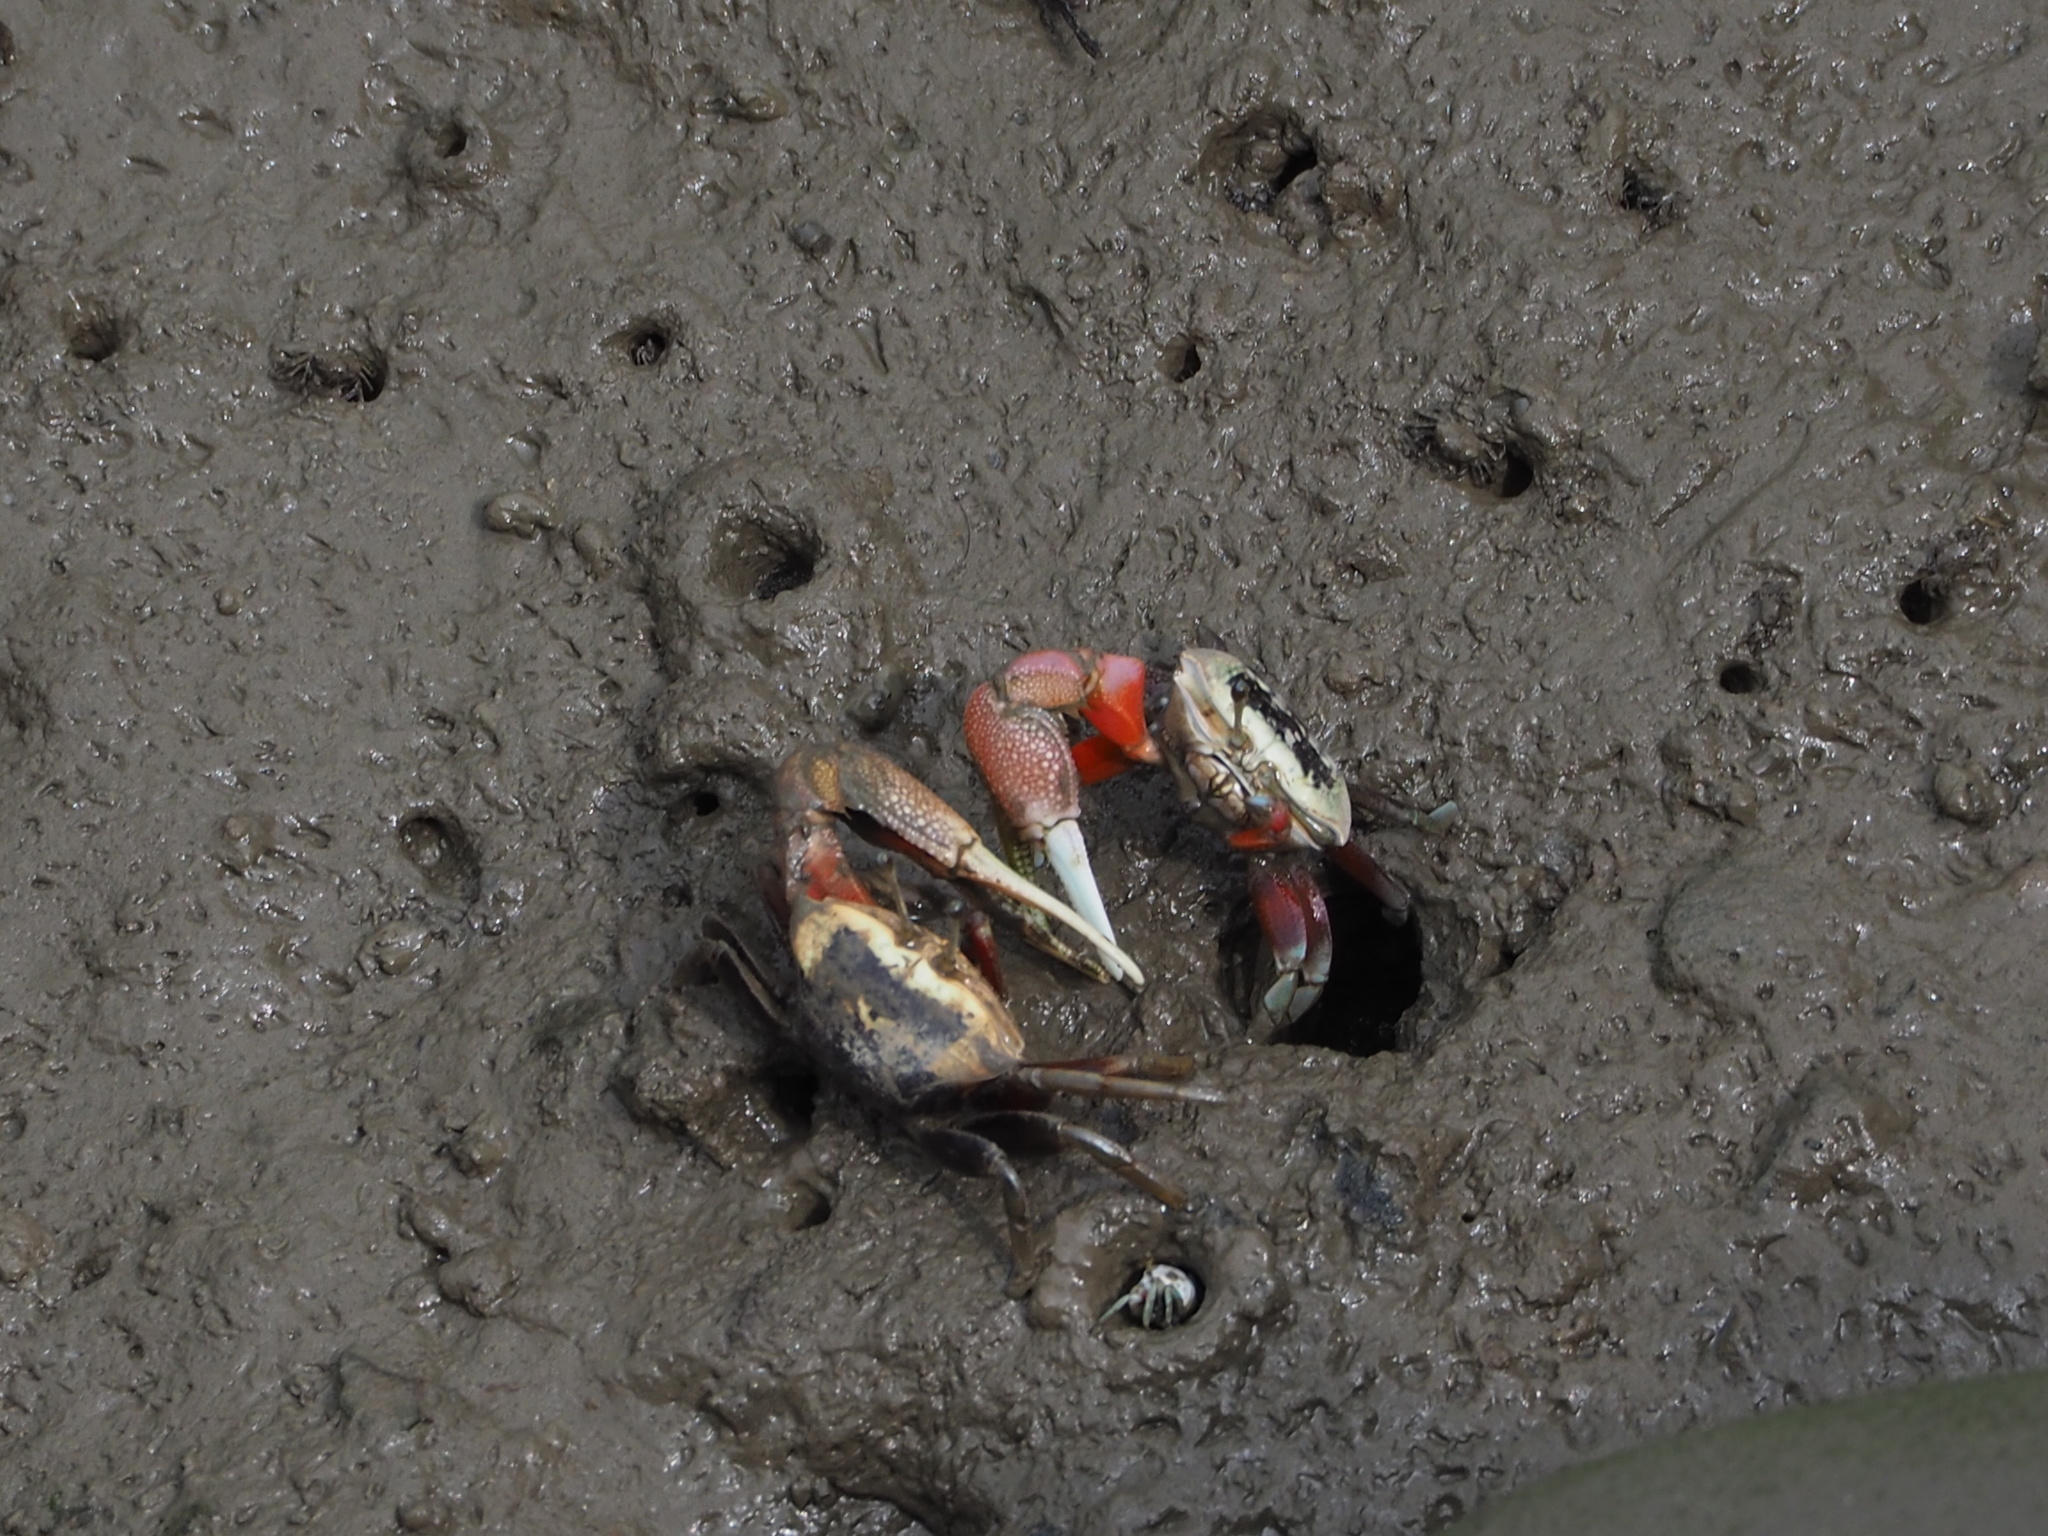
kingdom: Animalia
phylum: Arthropoda
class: Malacostraca
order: Decapoda
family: Ocypodidae
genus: Tubuca
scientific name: Tubuca arcuata
